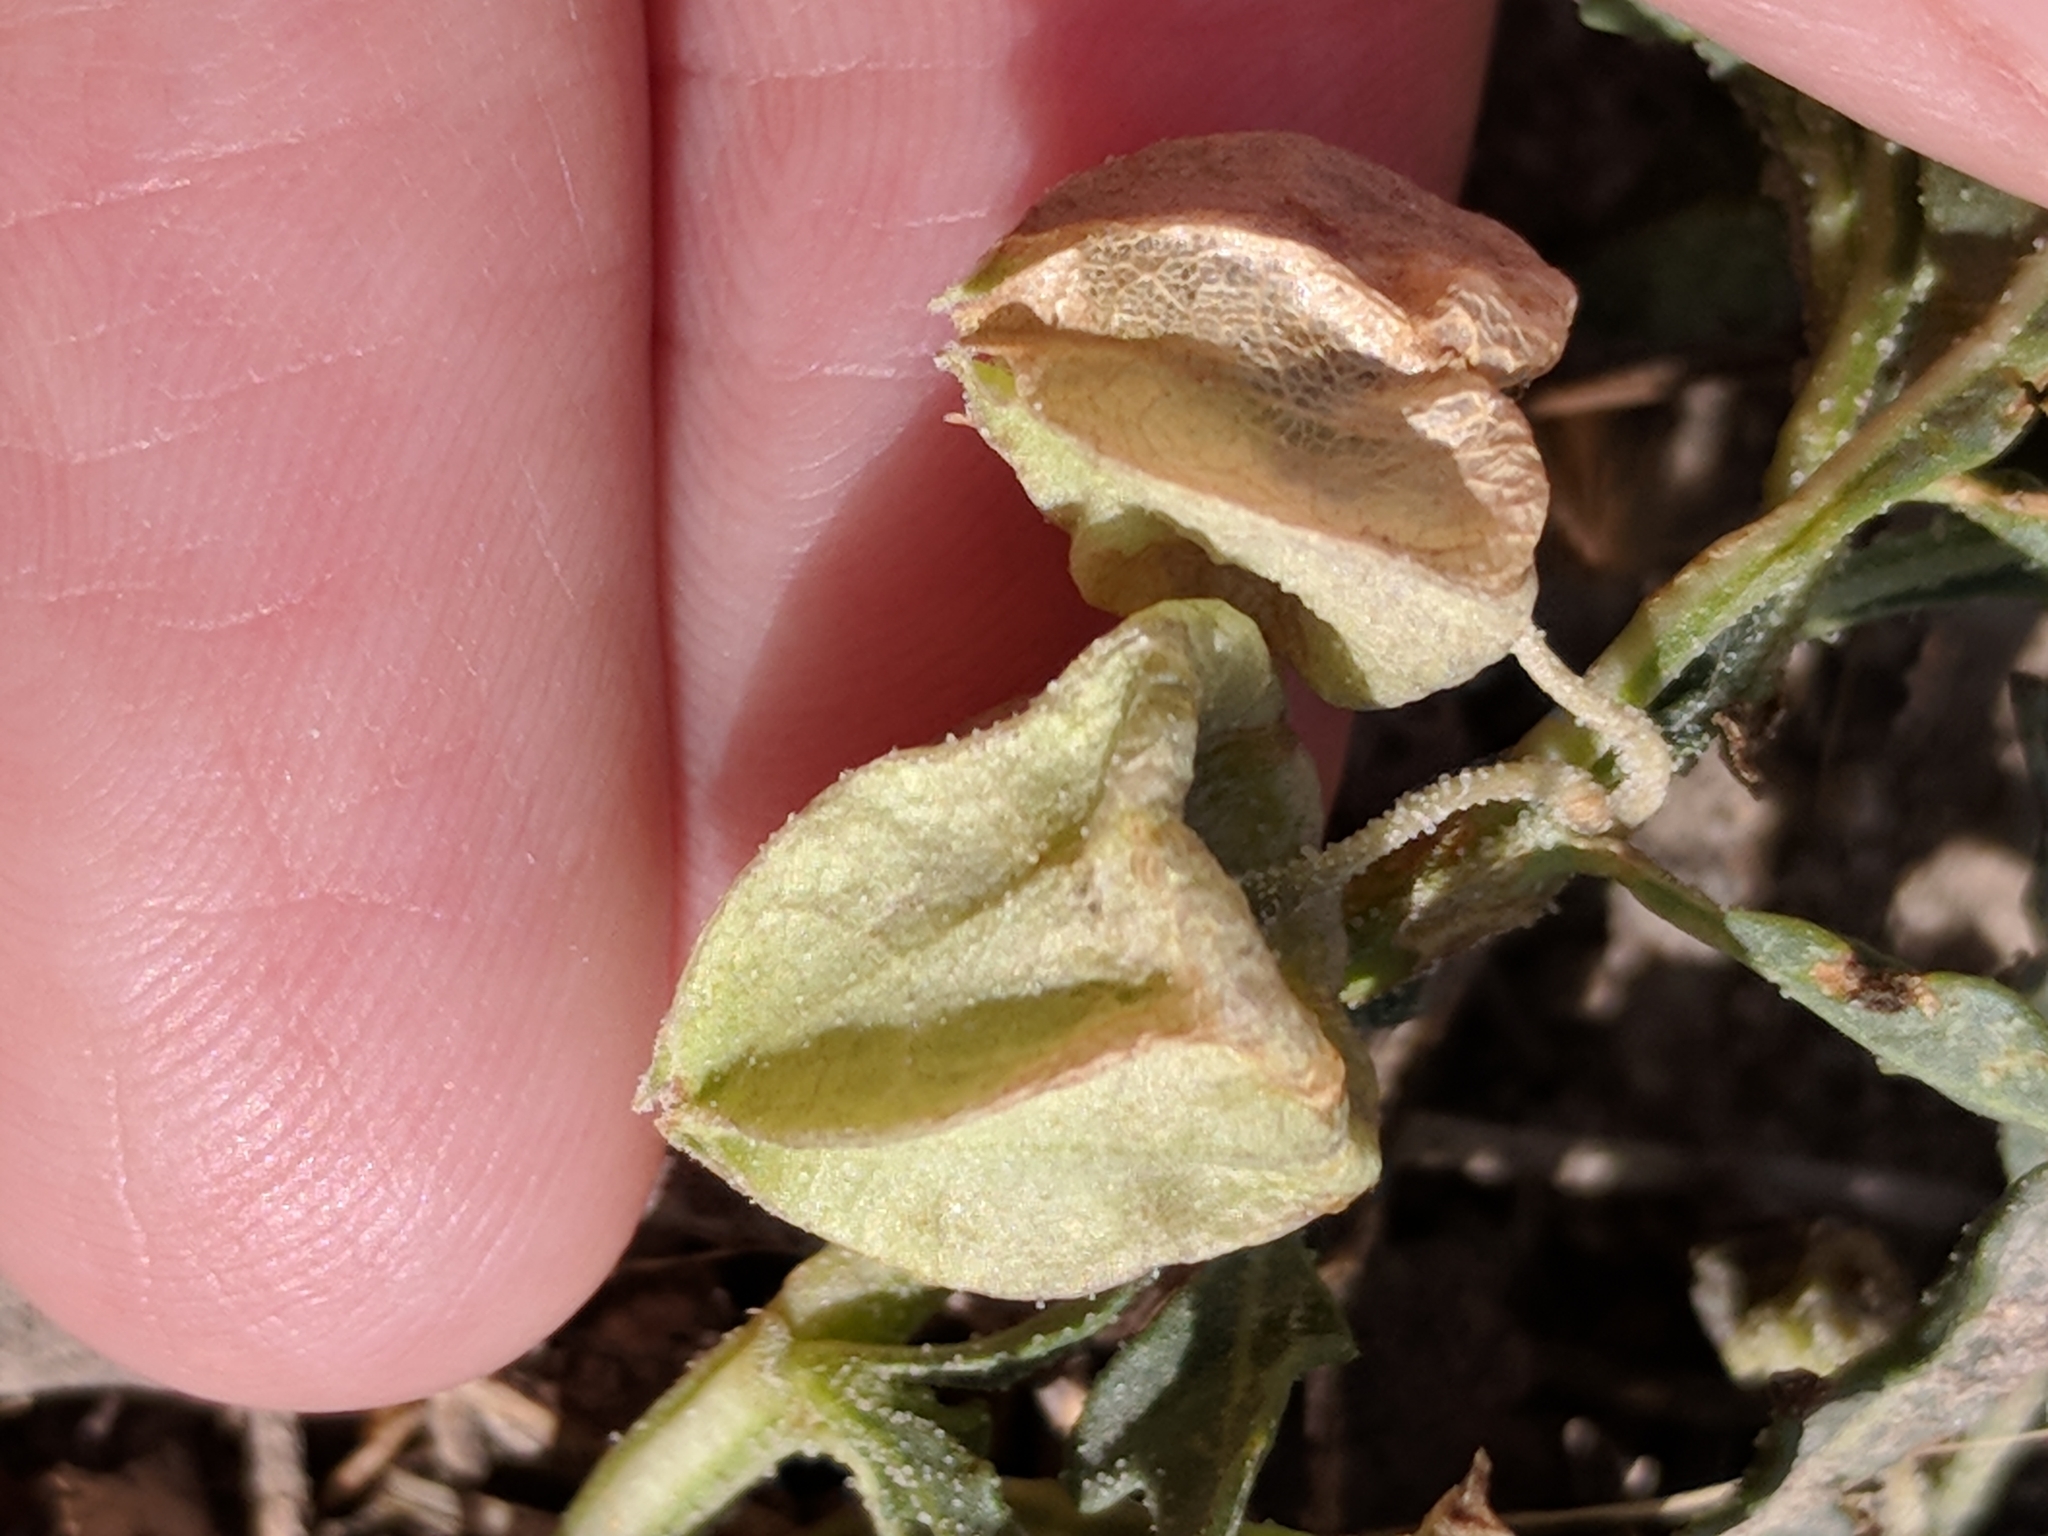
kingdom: Plantae
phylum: Tracheophyta
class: Magnoliopsida
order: Solanales
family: Solanaceae
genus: Quincula
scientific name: Quincula lobata
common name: Purple-ground-cherry
